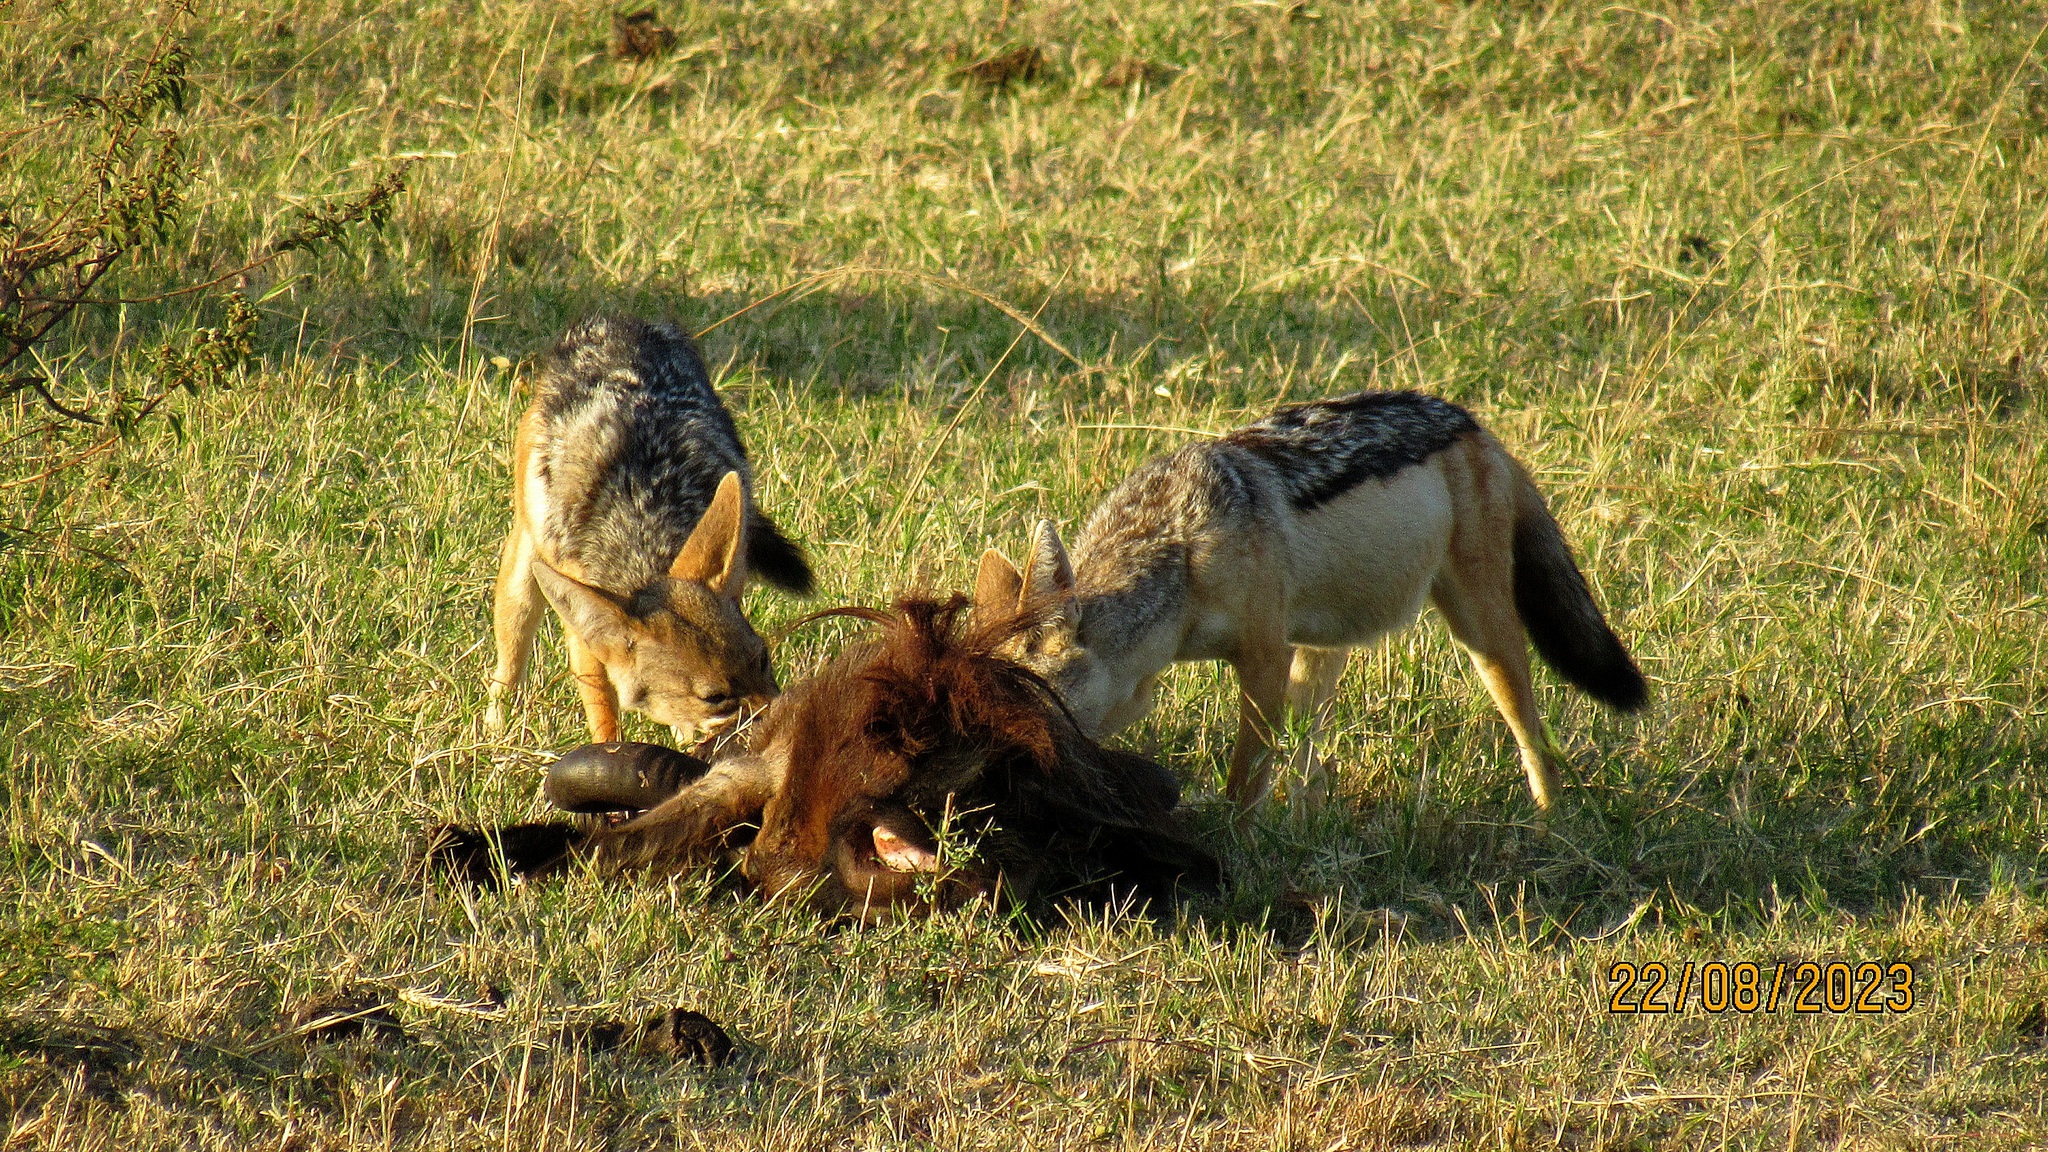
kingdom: Animalia
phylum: Chordata
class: Mammalia
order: Carnivora
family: Canidae
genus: Lupulella
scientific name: Lupulella
